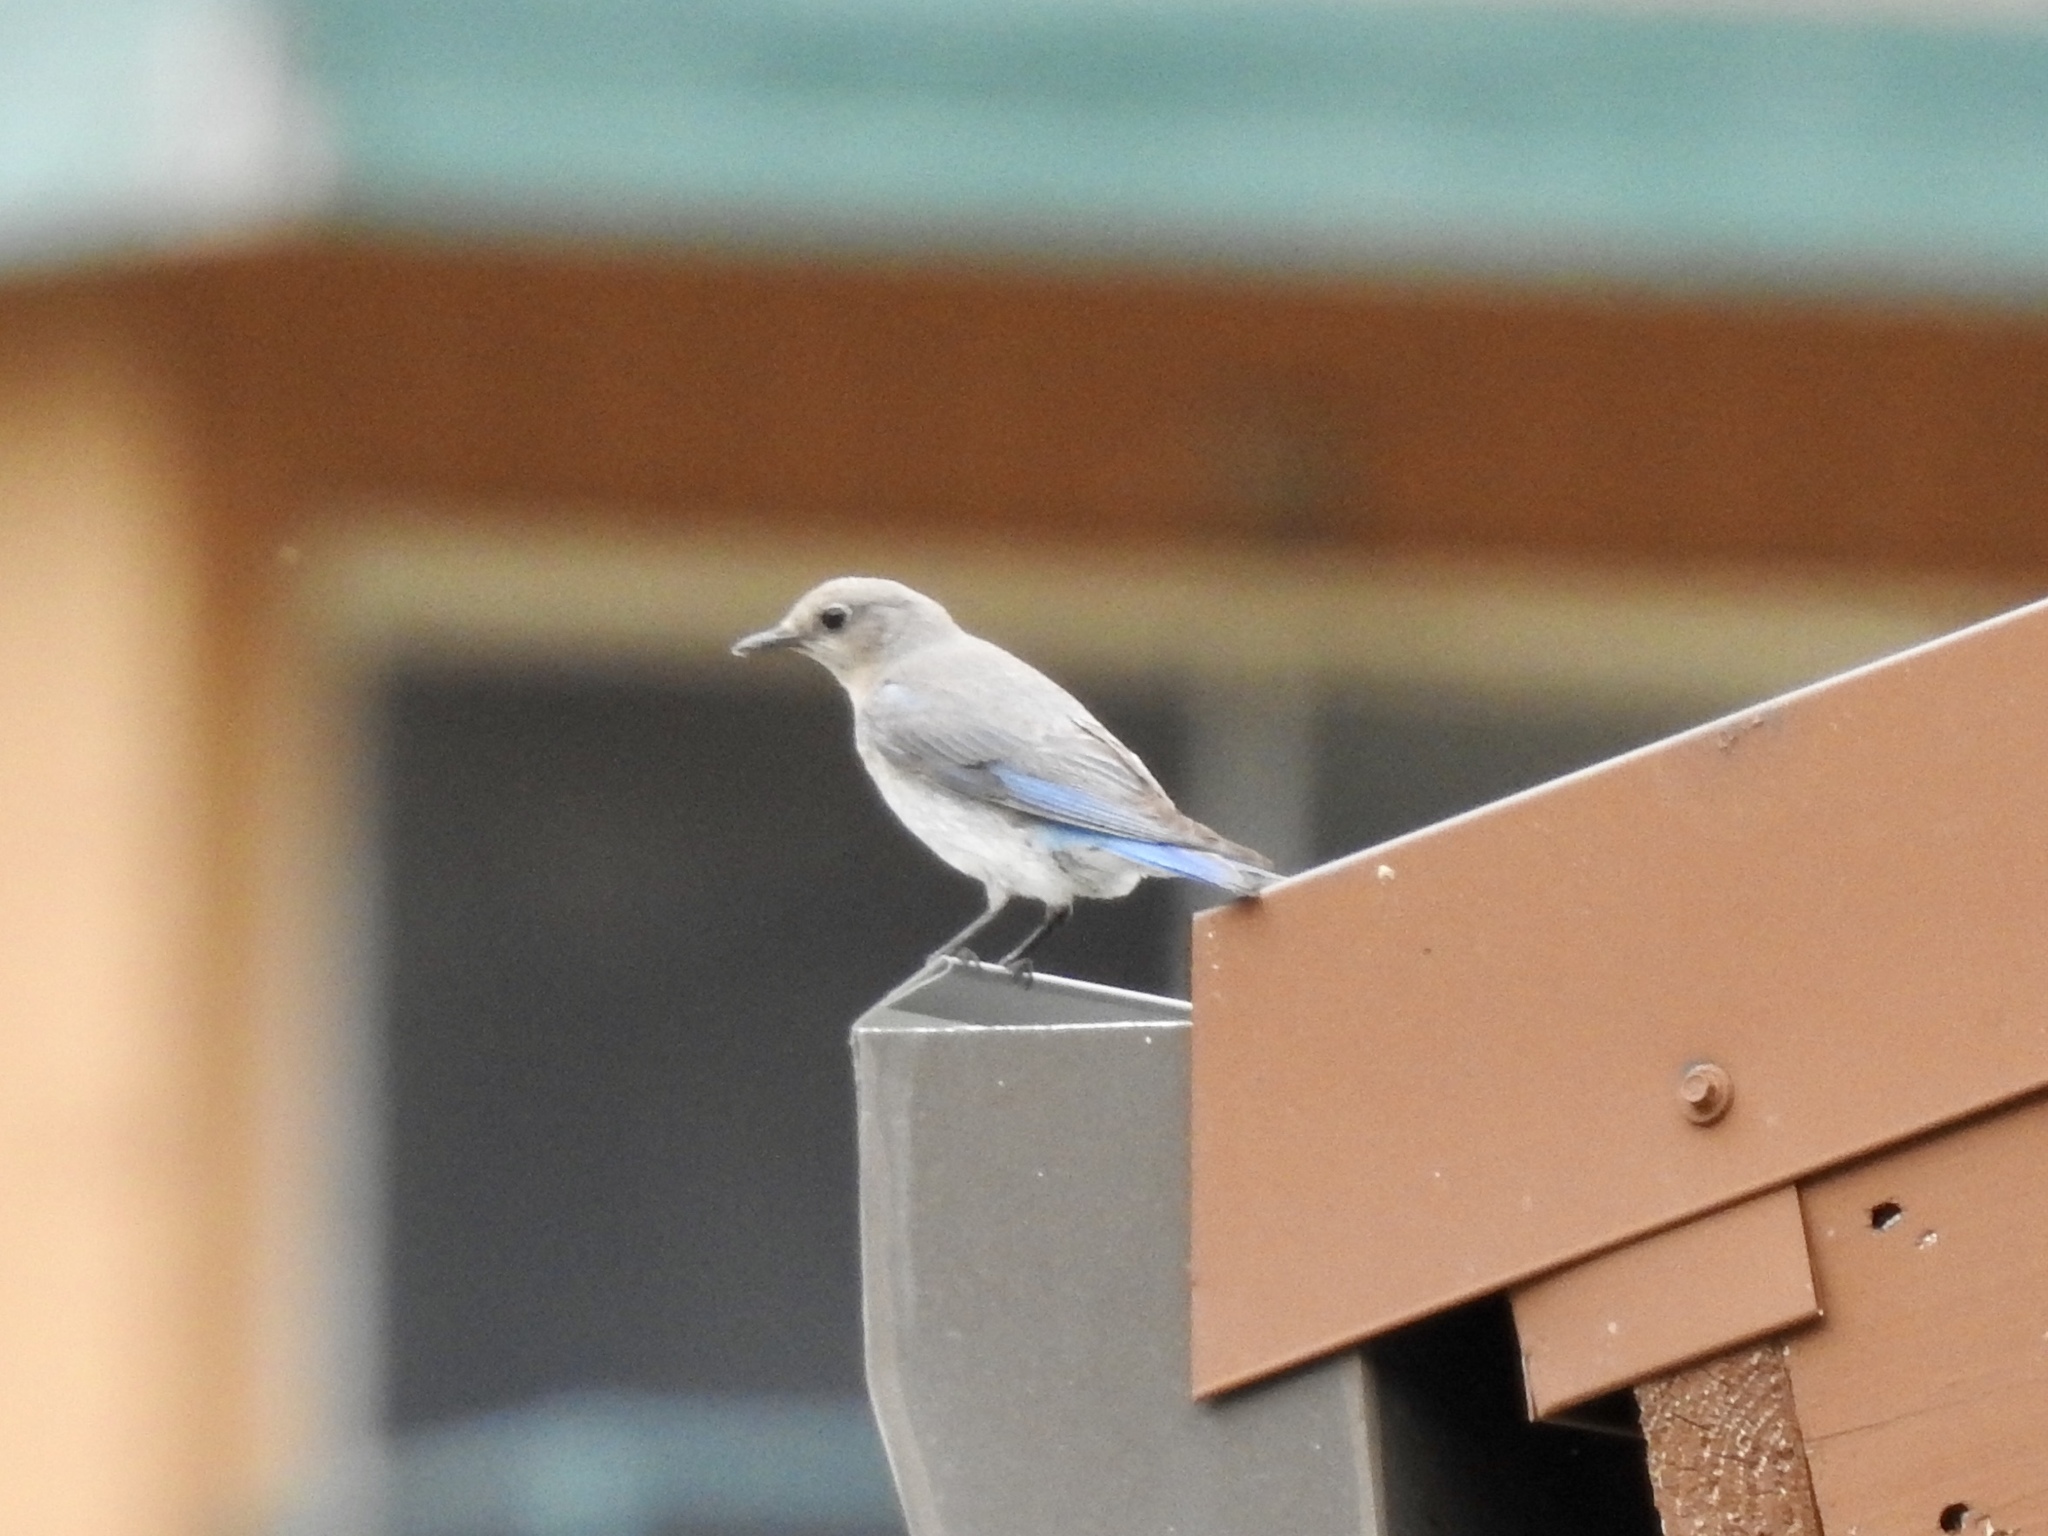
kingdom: Animalia
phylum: Chordata
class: Aves
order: Passeriformes
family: Turdidae
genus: Sialia
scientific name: Sialia currucoides
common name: Mountain bluebird
